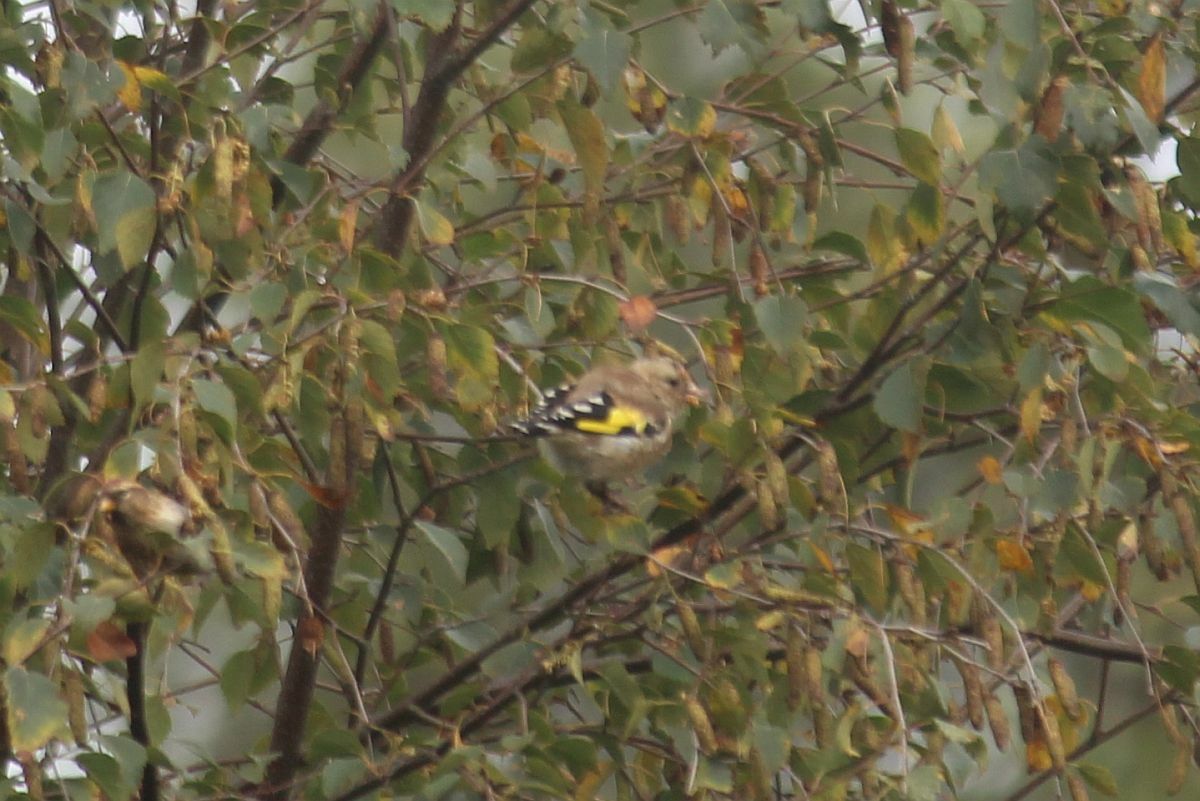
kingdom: Animalia
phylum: Chordata
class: Aves
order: Passeriformes
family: Fringillidae
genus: Carduelis
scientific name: Carduelis carduelis
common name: European goldfinch
